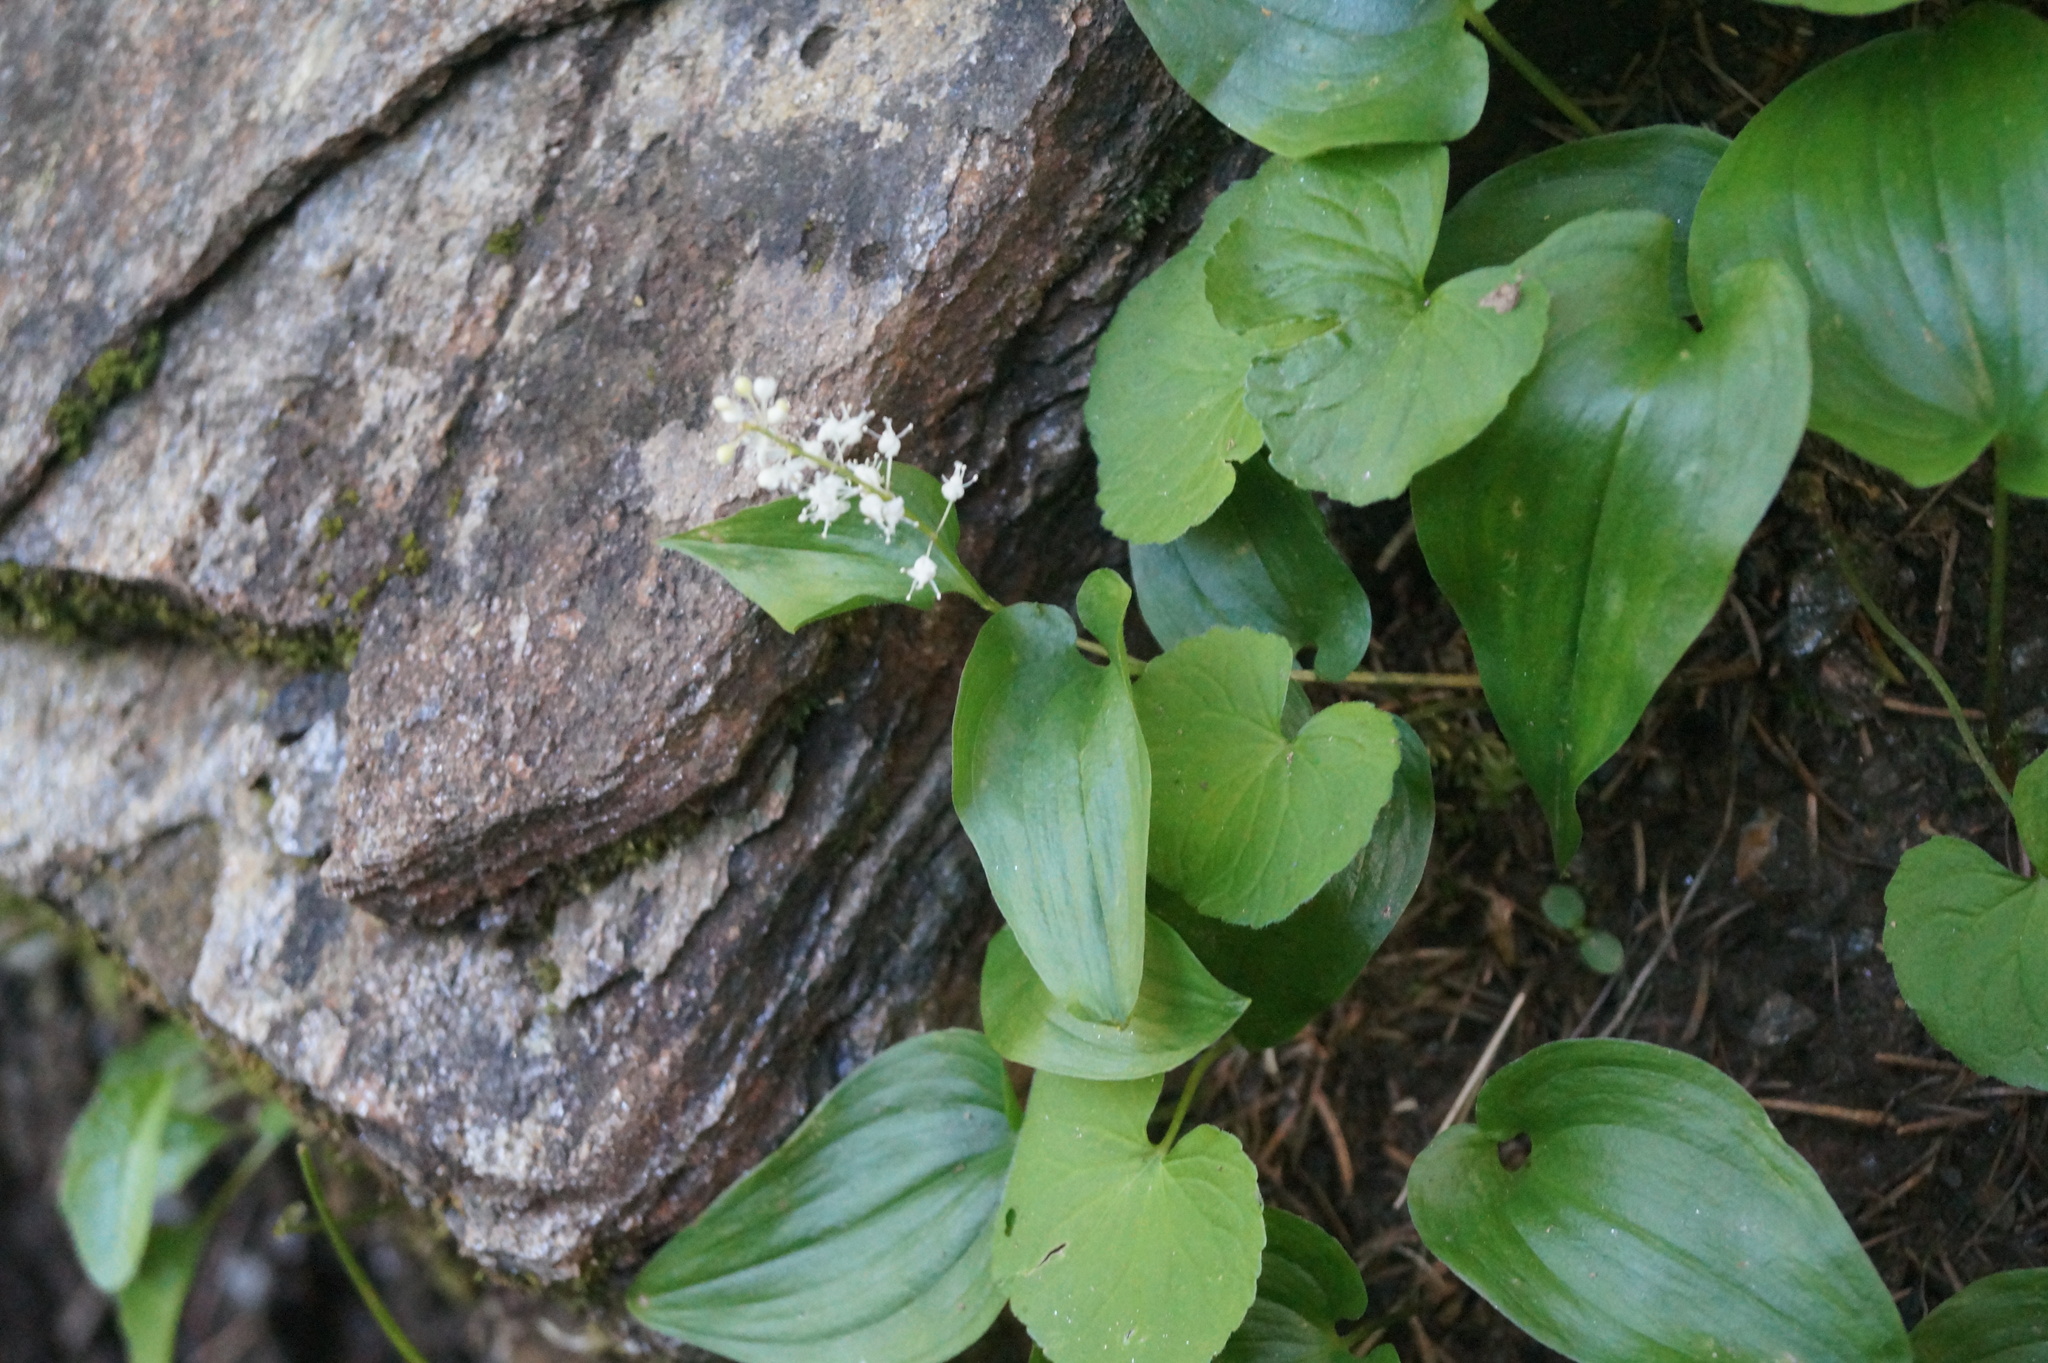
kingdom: Plantae
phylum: Tracheophyta
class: Liliopsida
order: Asparagales
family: Asparagaceae
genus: Maianthemum
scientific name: Maianthemum bifolium
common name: May lily
